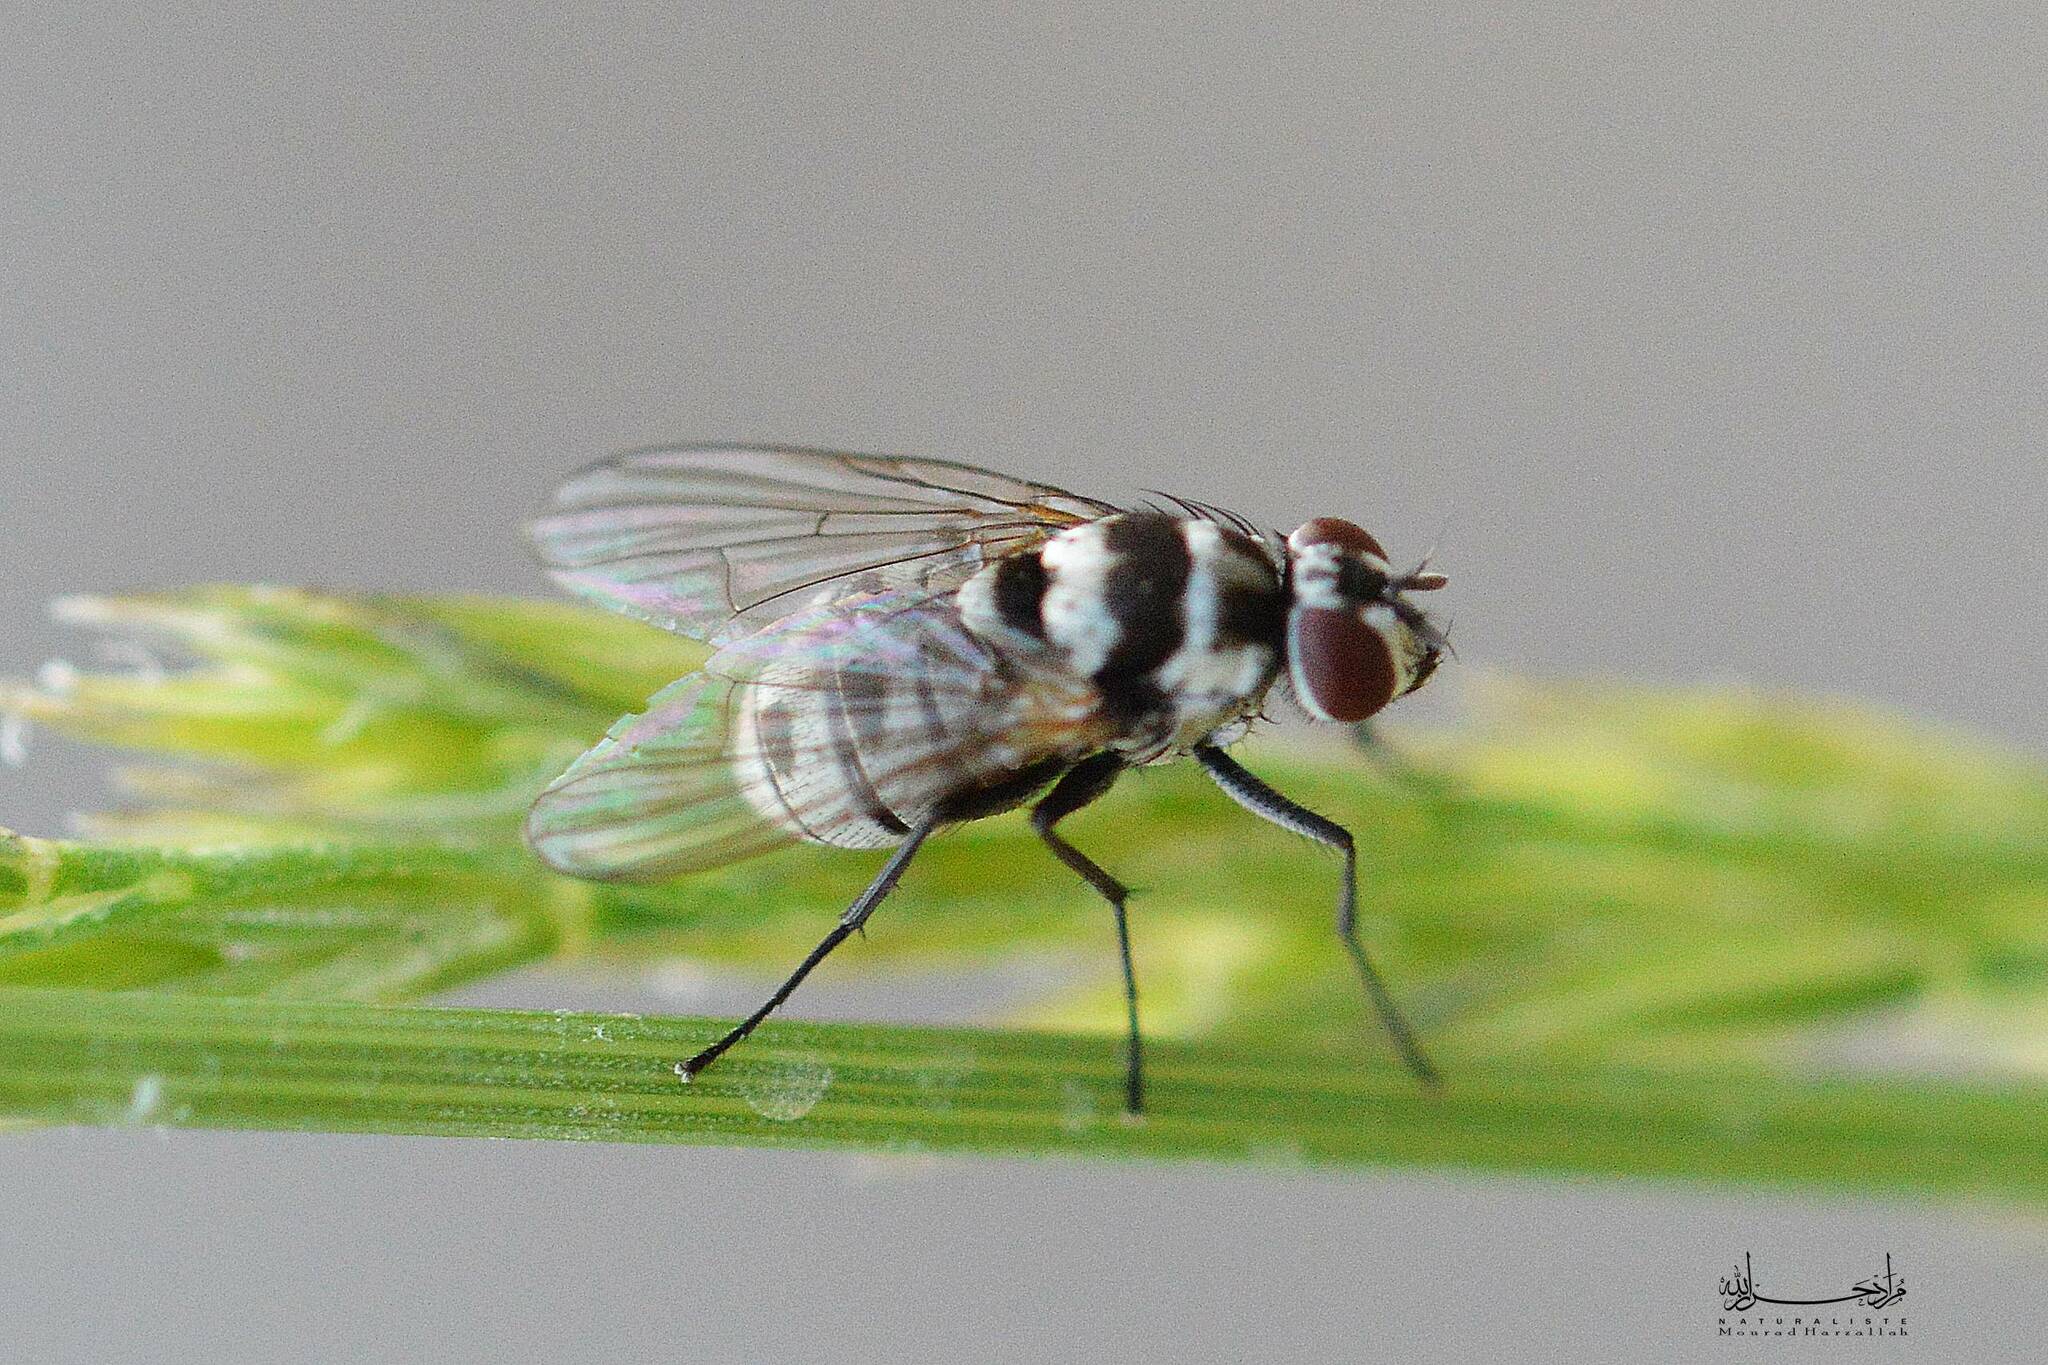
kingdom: Animalia
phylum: Arthropoda
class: Insecta
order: Diptera
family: Muscidae
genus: Limnophora
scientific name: Limnophora obsignata
